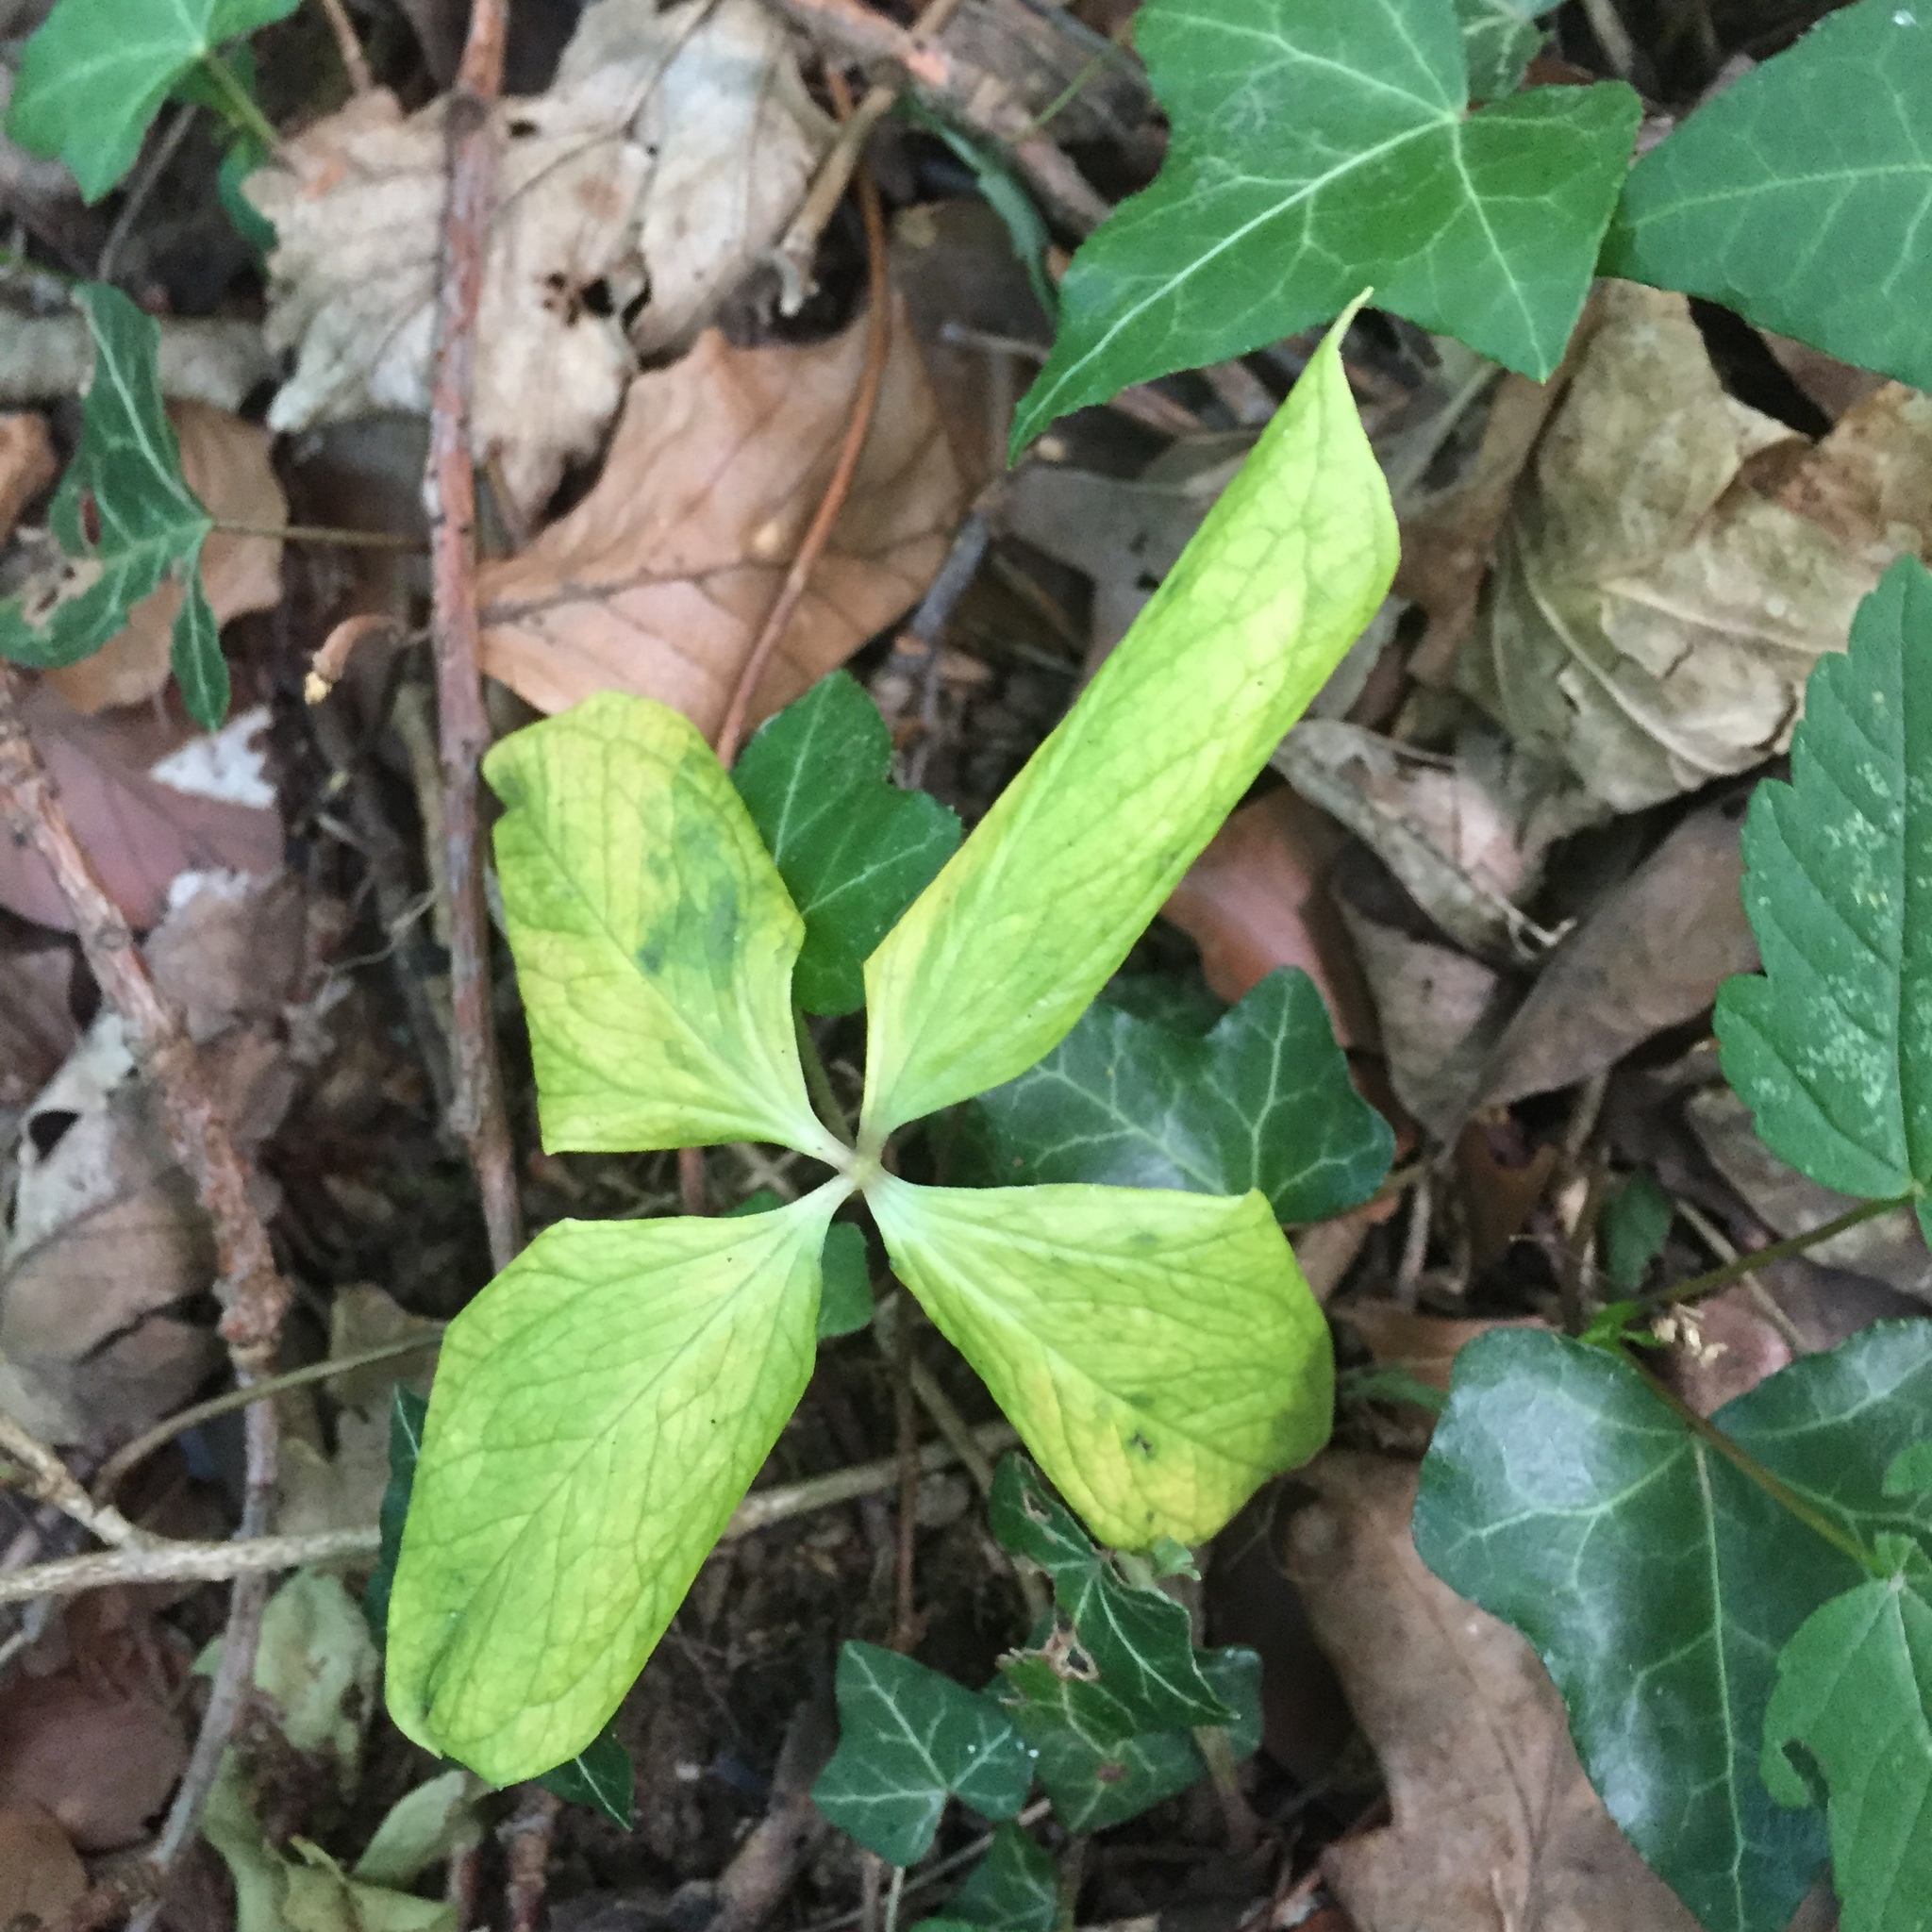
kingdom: Plantae
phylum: Tracheophyta
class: Liliopsida
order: Liliales
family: Melanthiaceae
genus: Paris
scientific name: Paris quadrifolia
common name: Herb-paris
